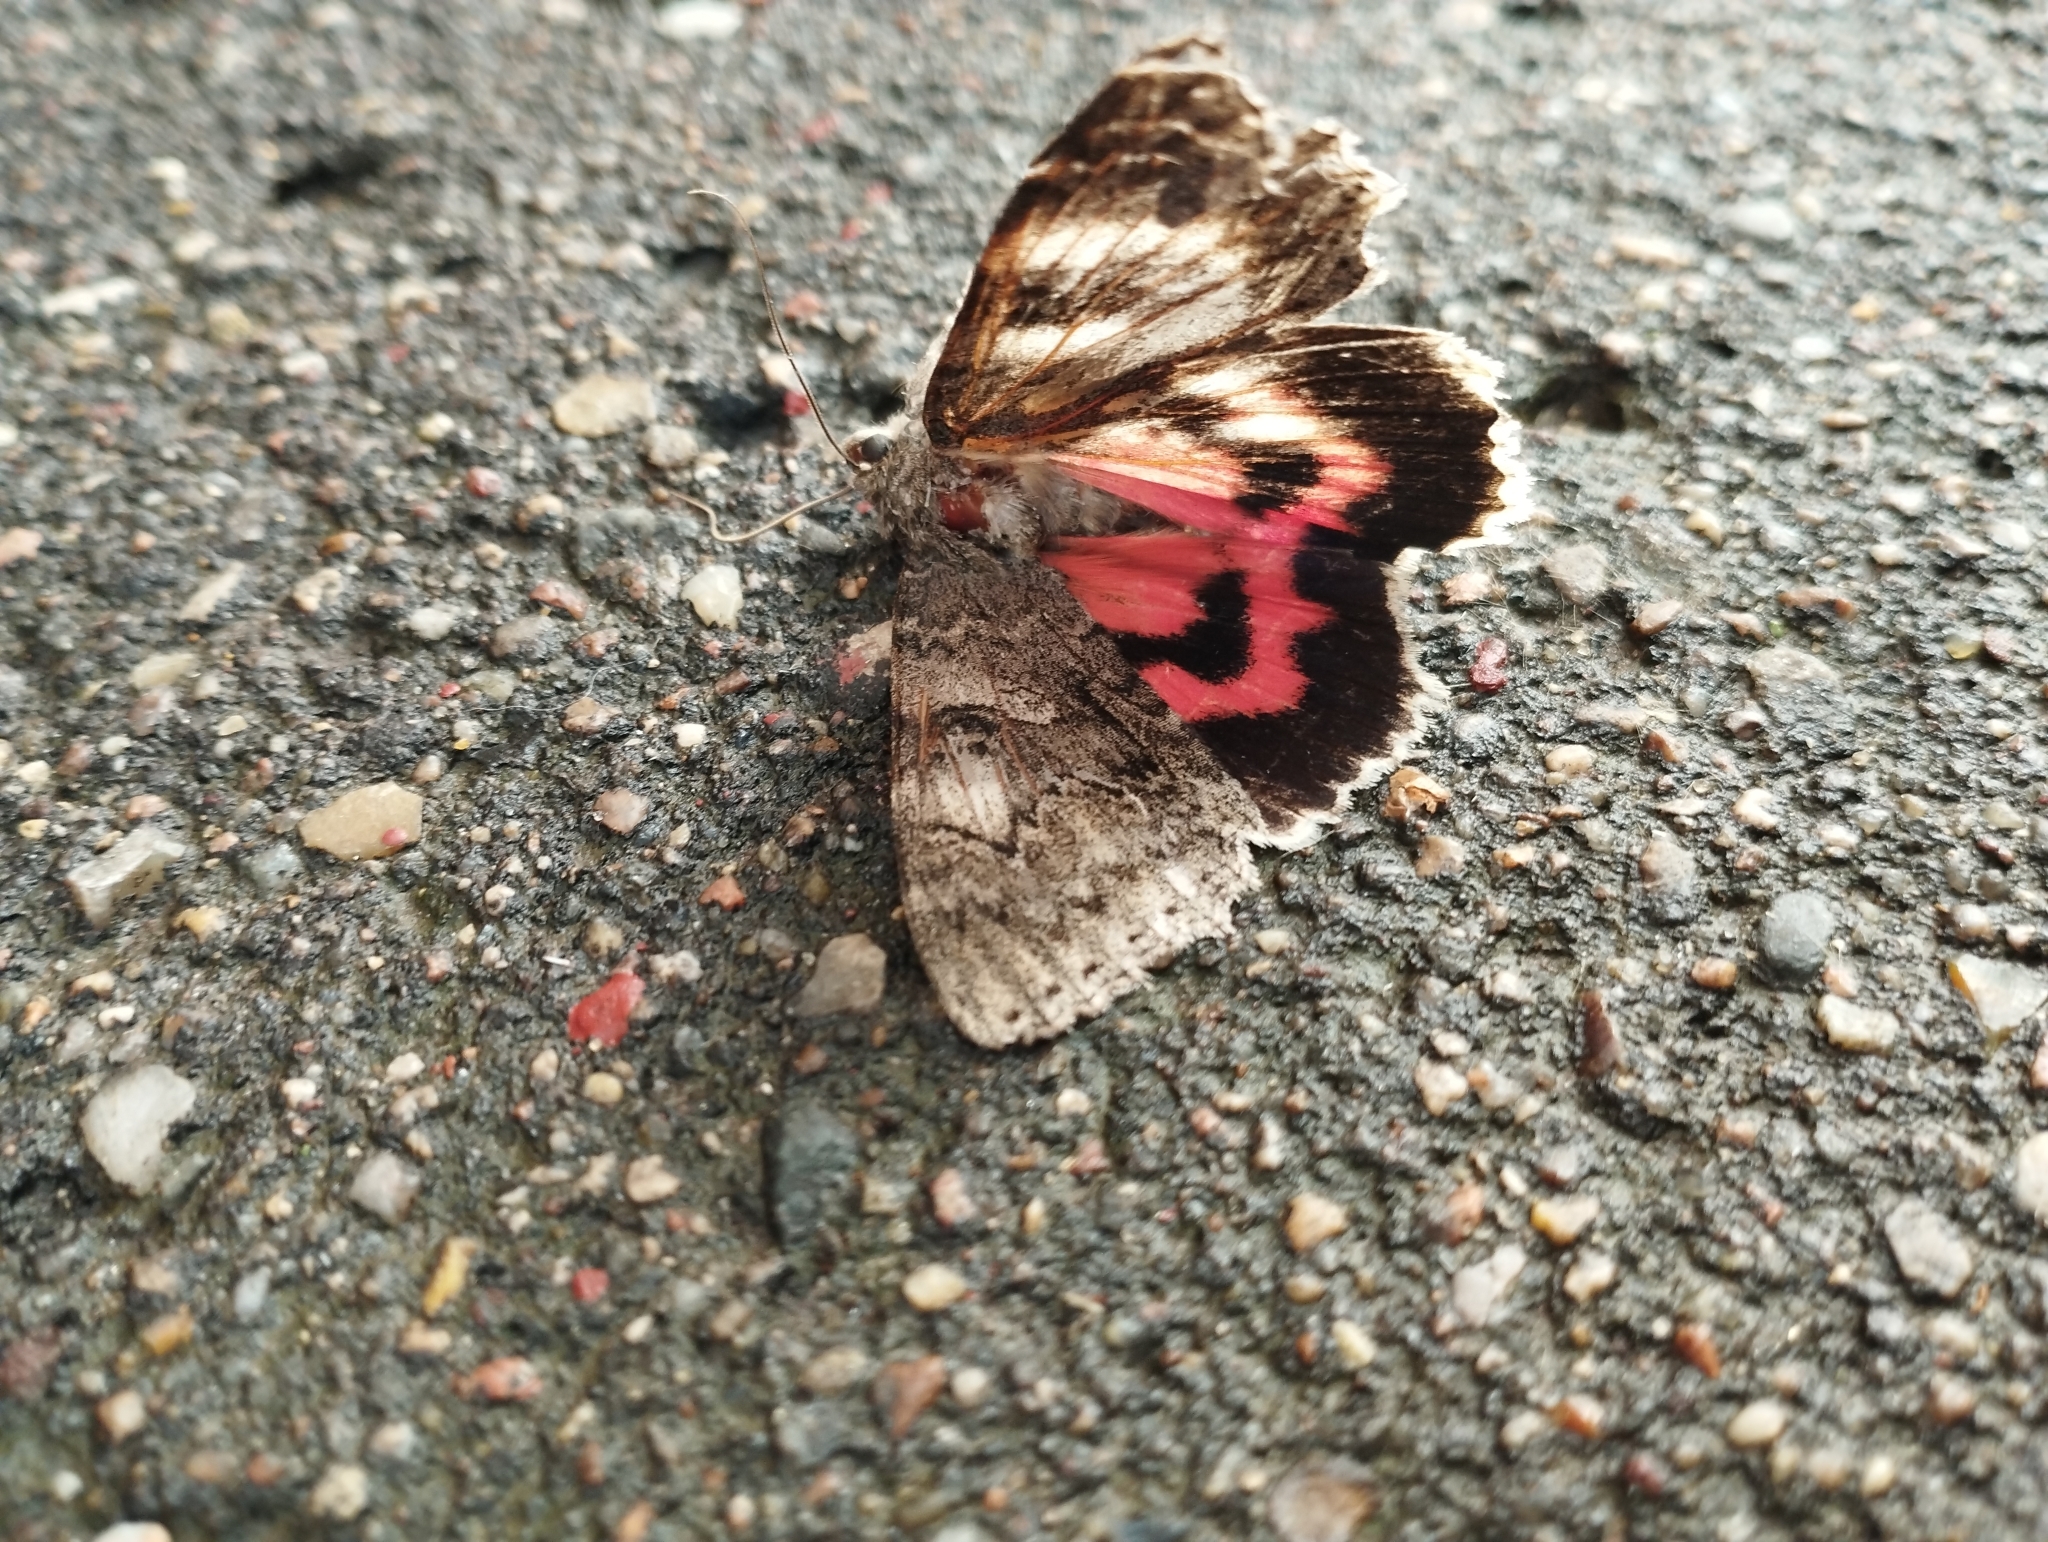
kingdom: Animalia
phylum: Arthropoda
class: Insecta
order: Lepidoptera
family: Erebidae
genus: Catocala
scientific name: Catocala nupta
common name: Red underwing
